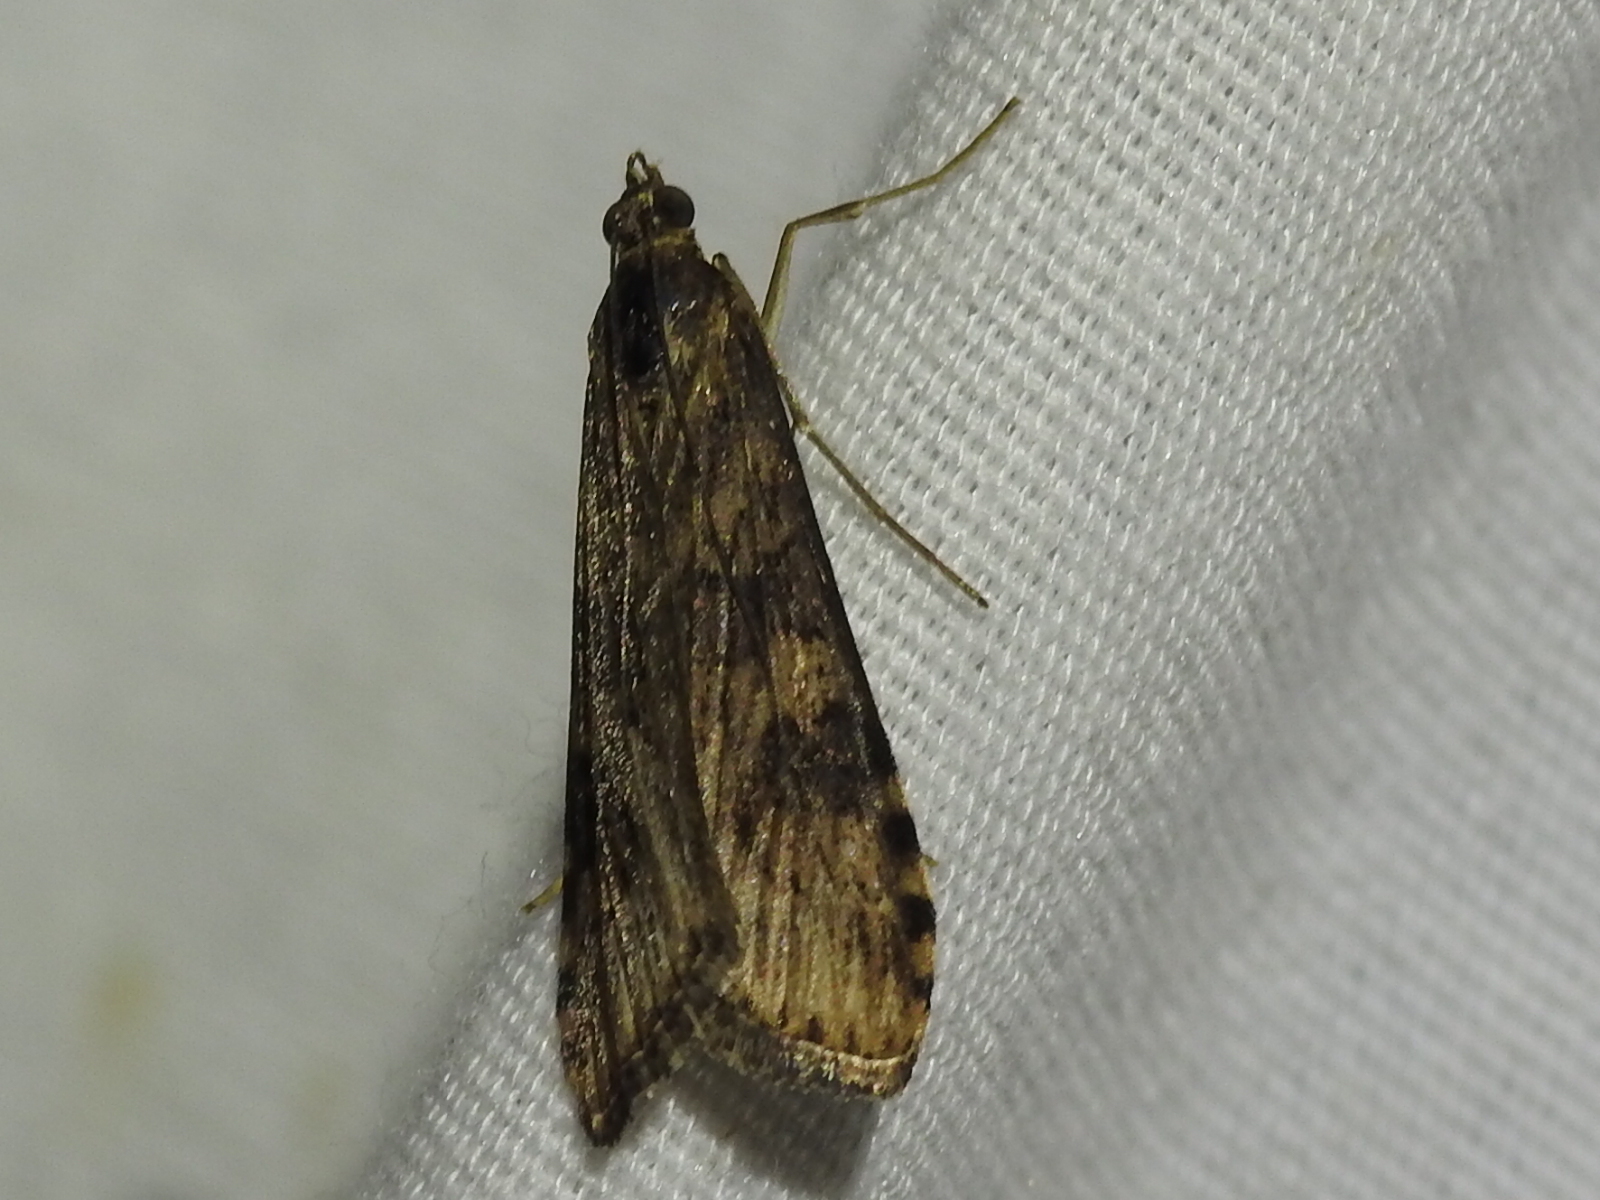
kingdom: Animalia
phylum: Arthropoda
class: Insecta
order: Lepidoptera
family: Crambidae
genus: Nomophila
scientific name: Nomophila nearctica
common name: American rush veneer
